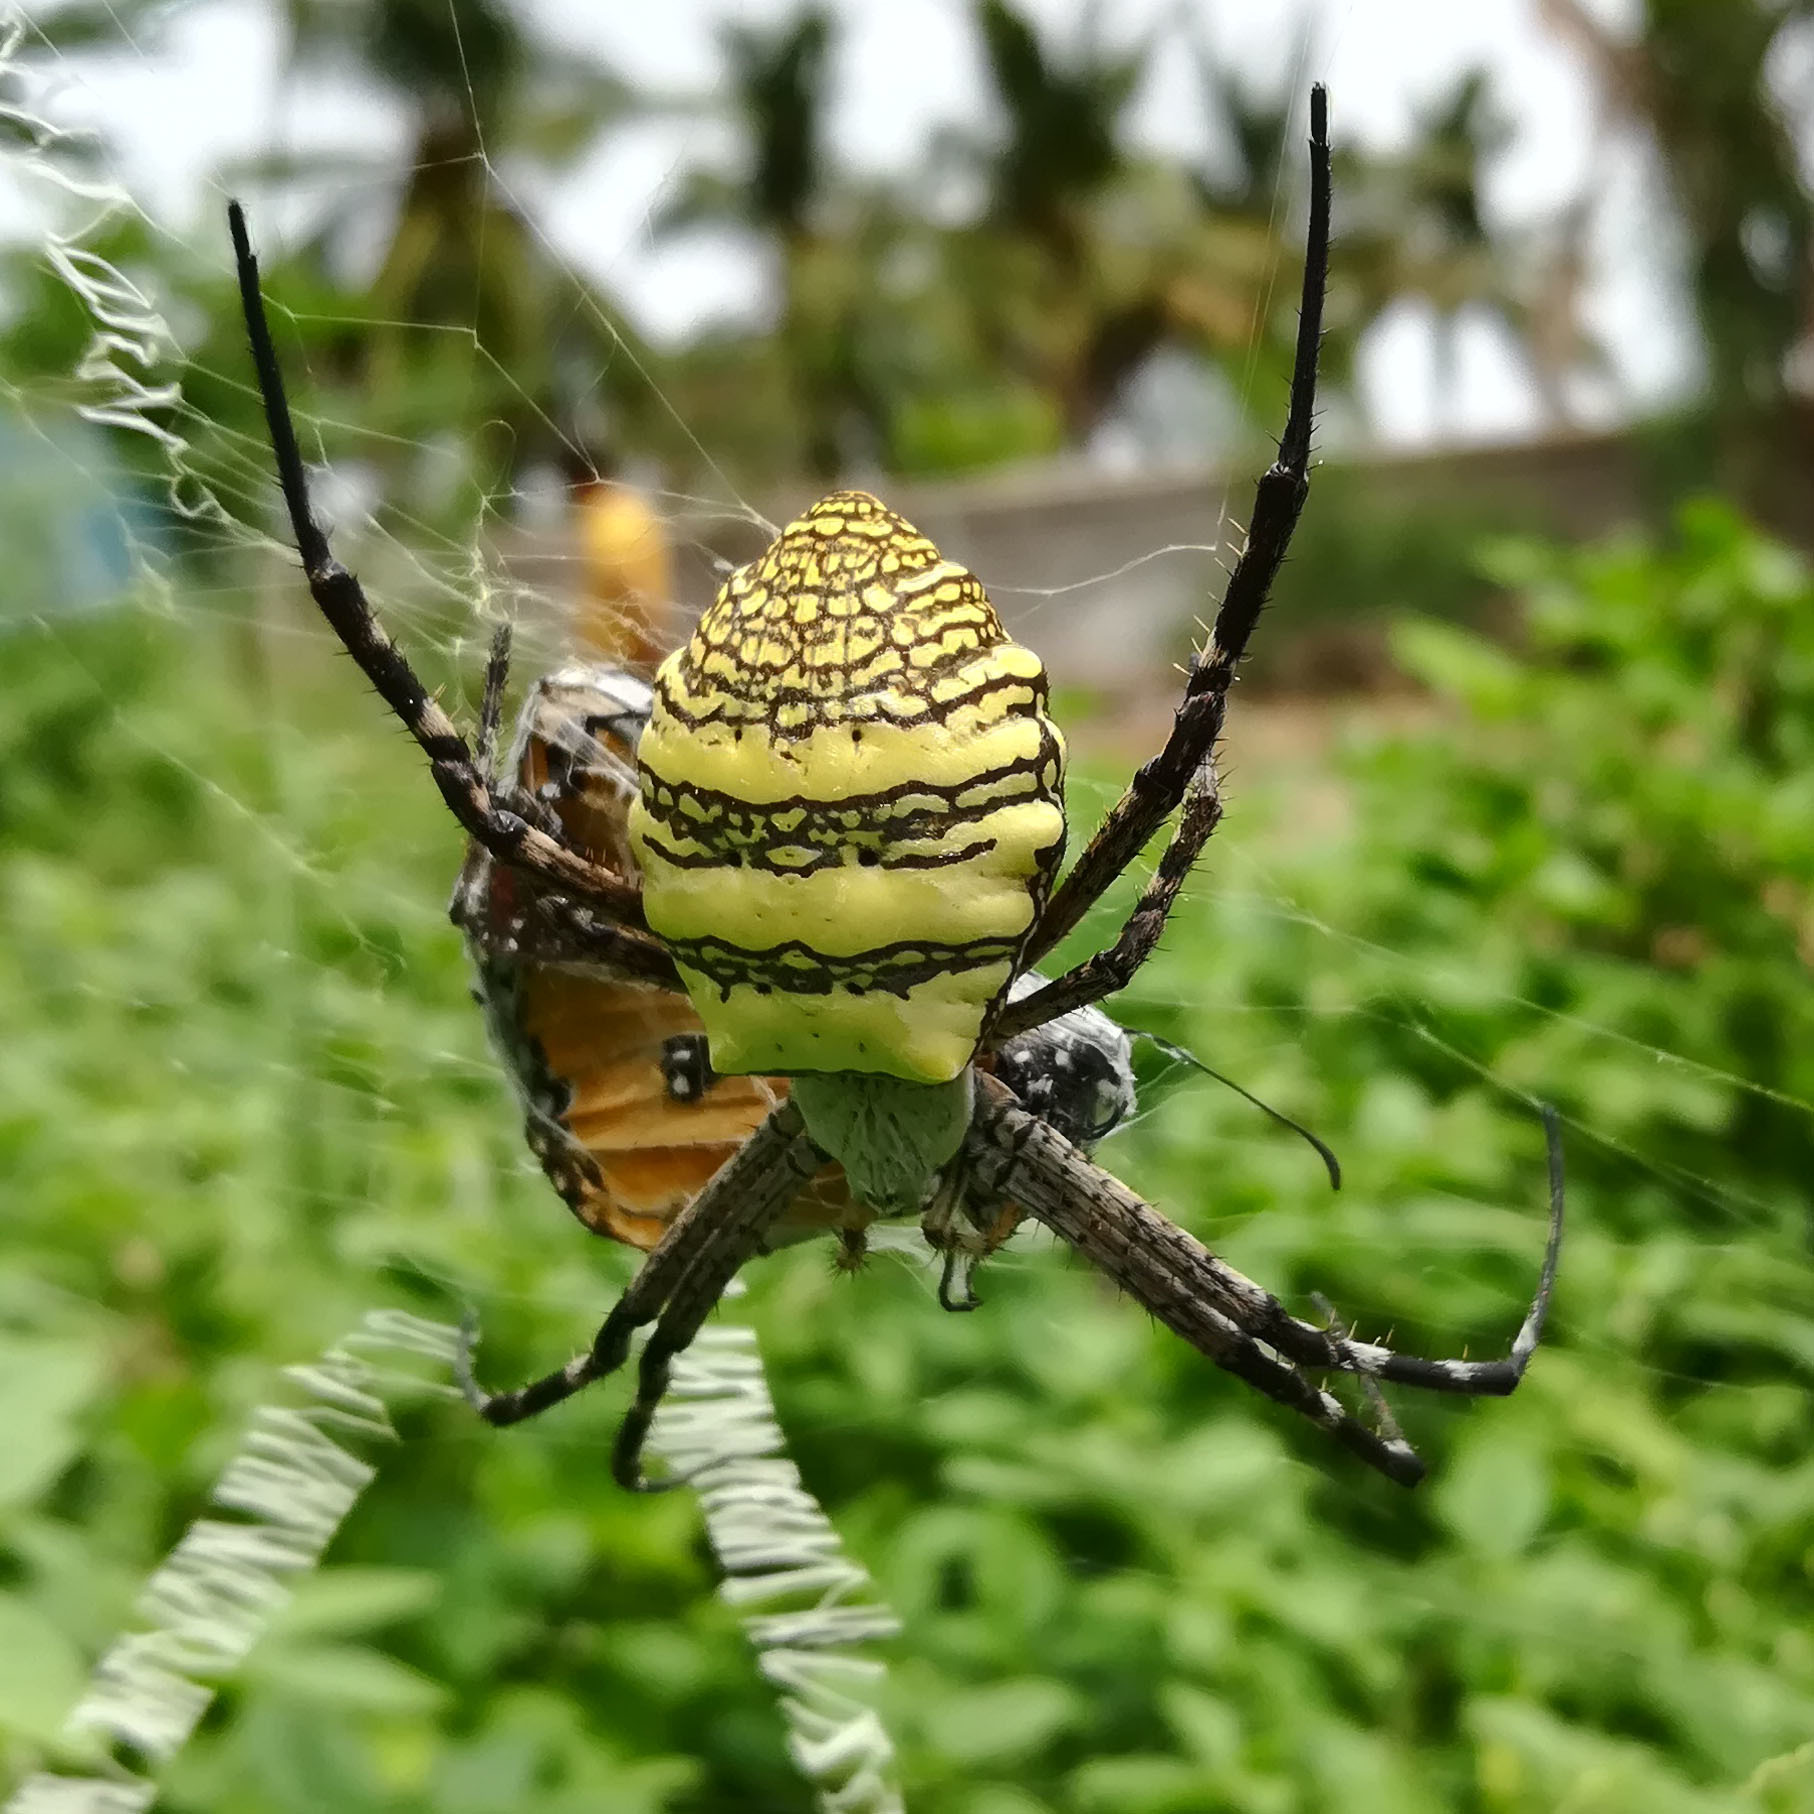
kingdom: Animalia
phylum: Arthropoda
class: Arachnida
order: Araneae
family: Araneidae
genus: Argiope
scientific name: Argiope aemula
